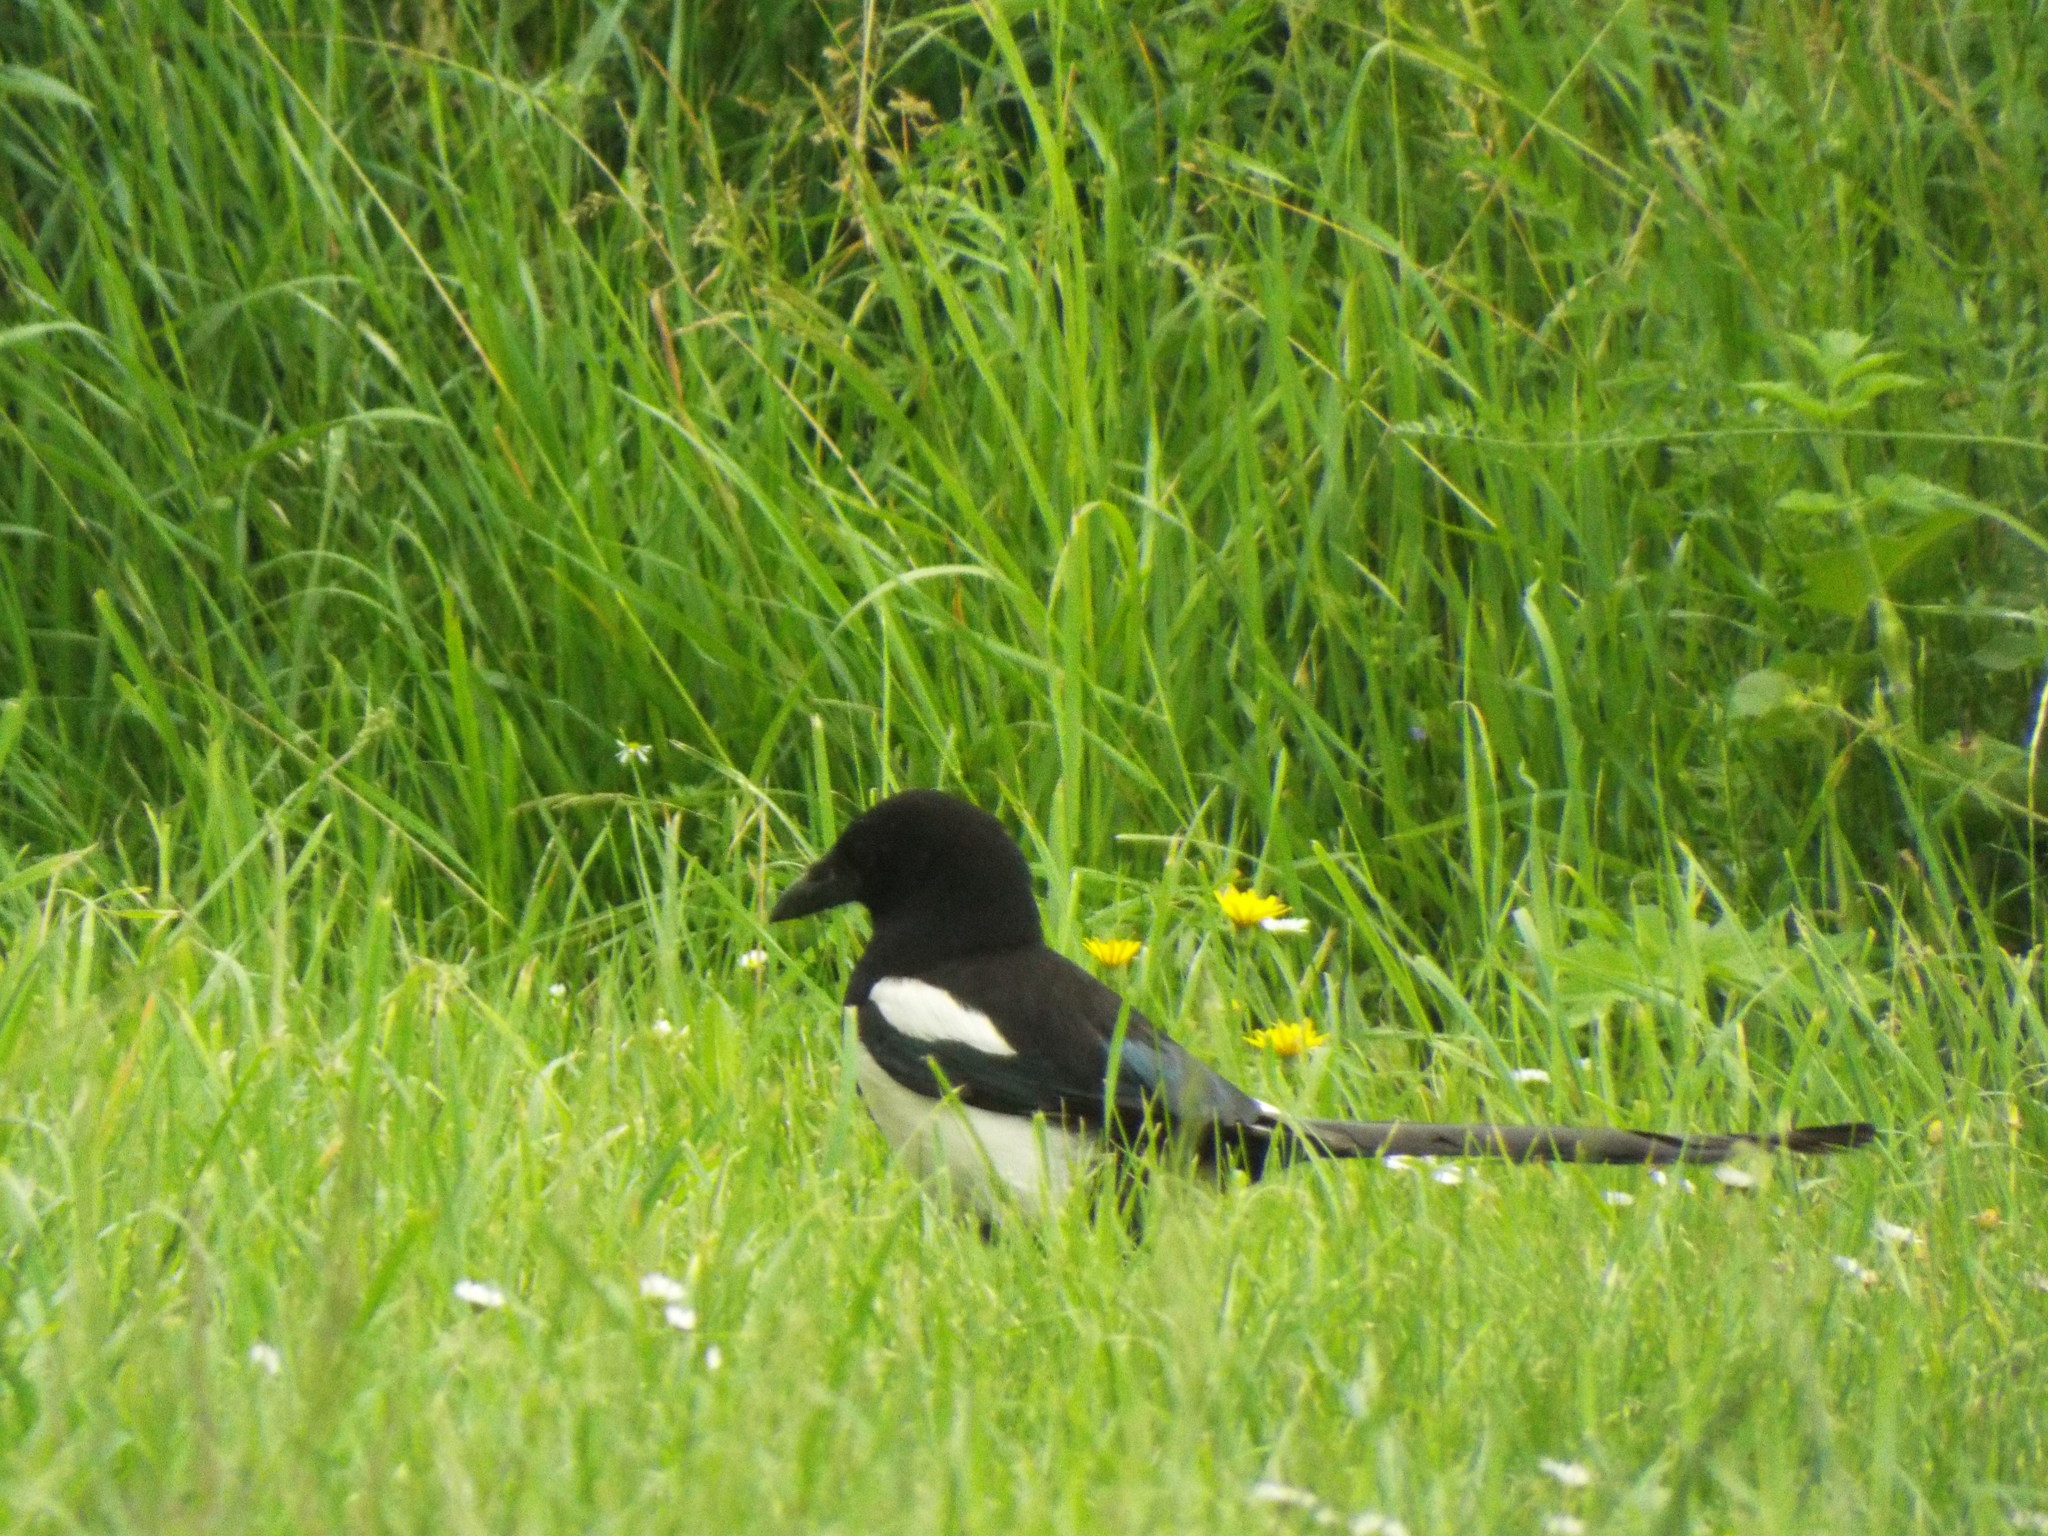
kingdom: Animalia
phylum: Chordata
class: Aves
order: Passeriformes
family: Corvidae
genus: Pica
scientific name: Pica pica
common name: Eurasian magpie
